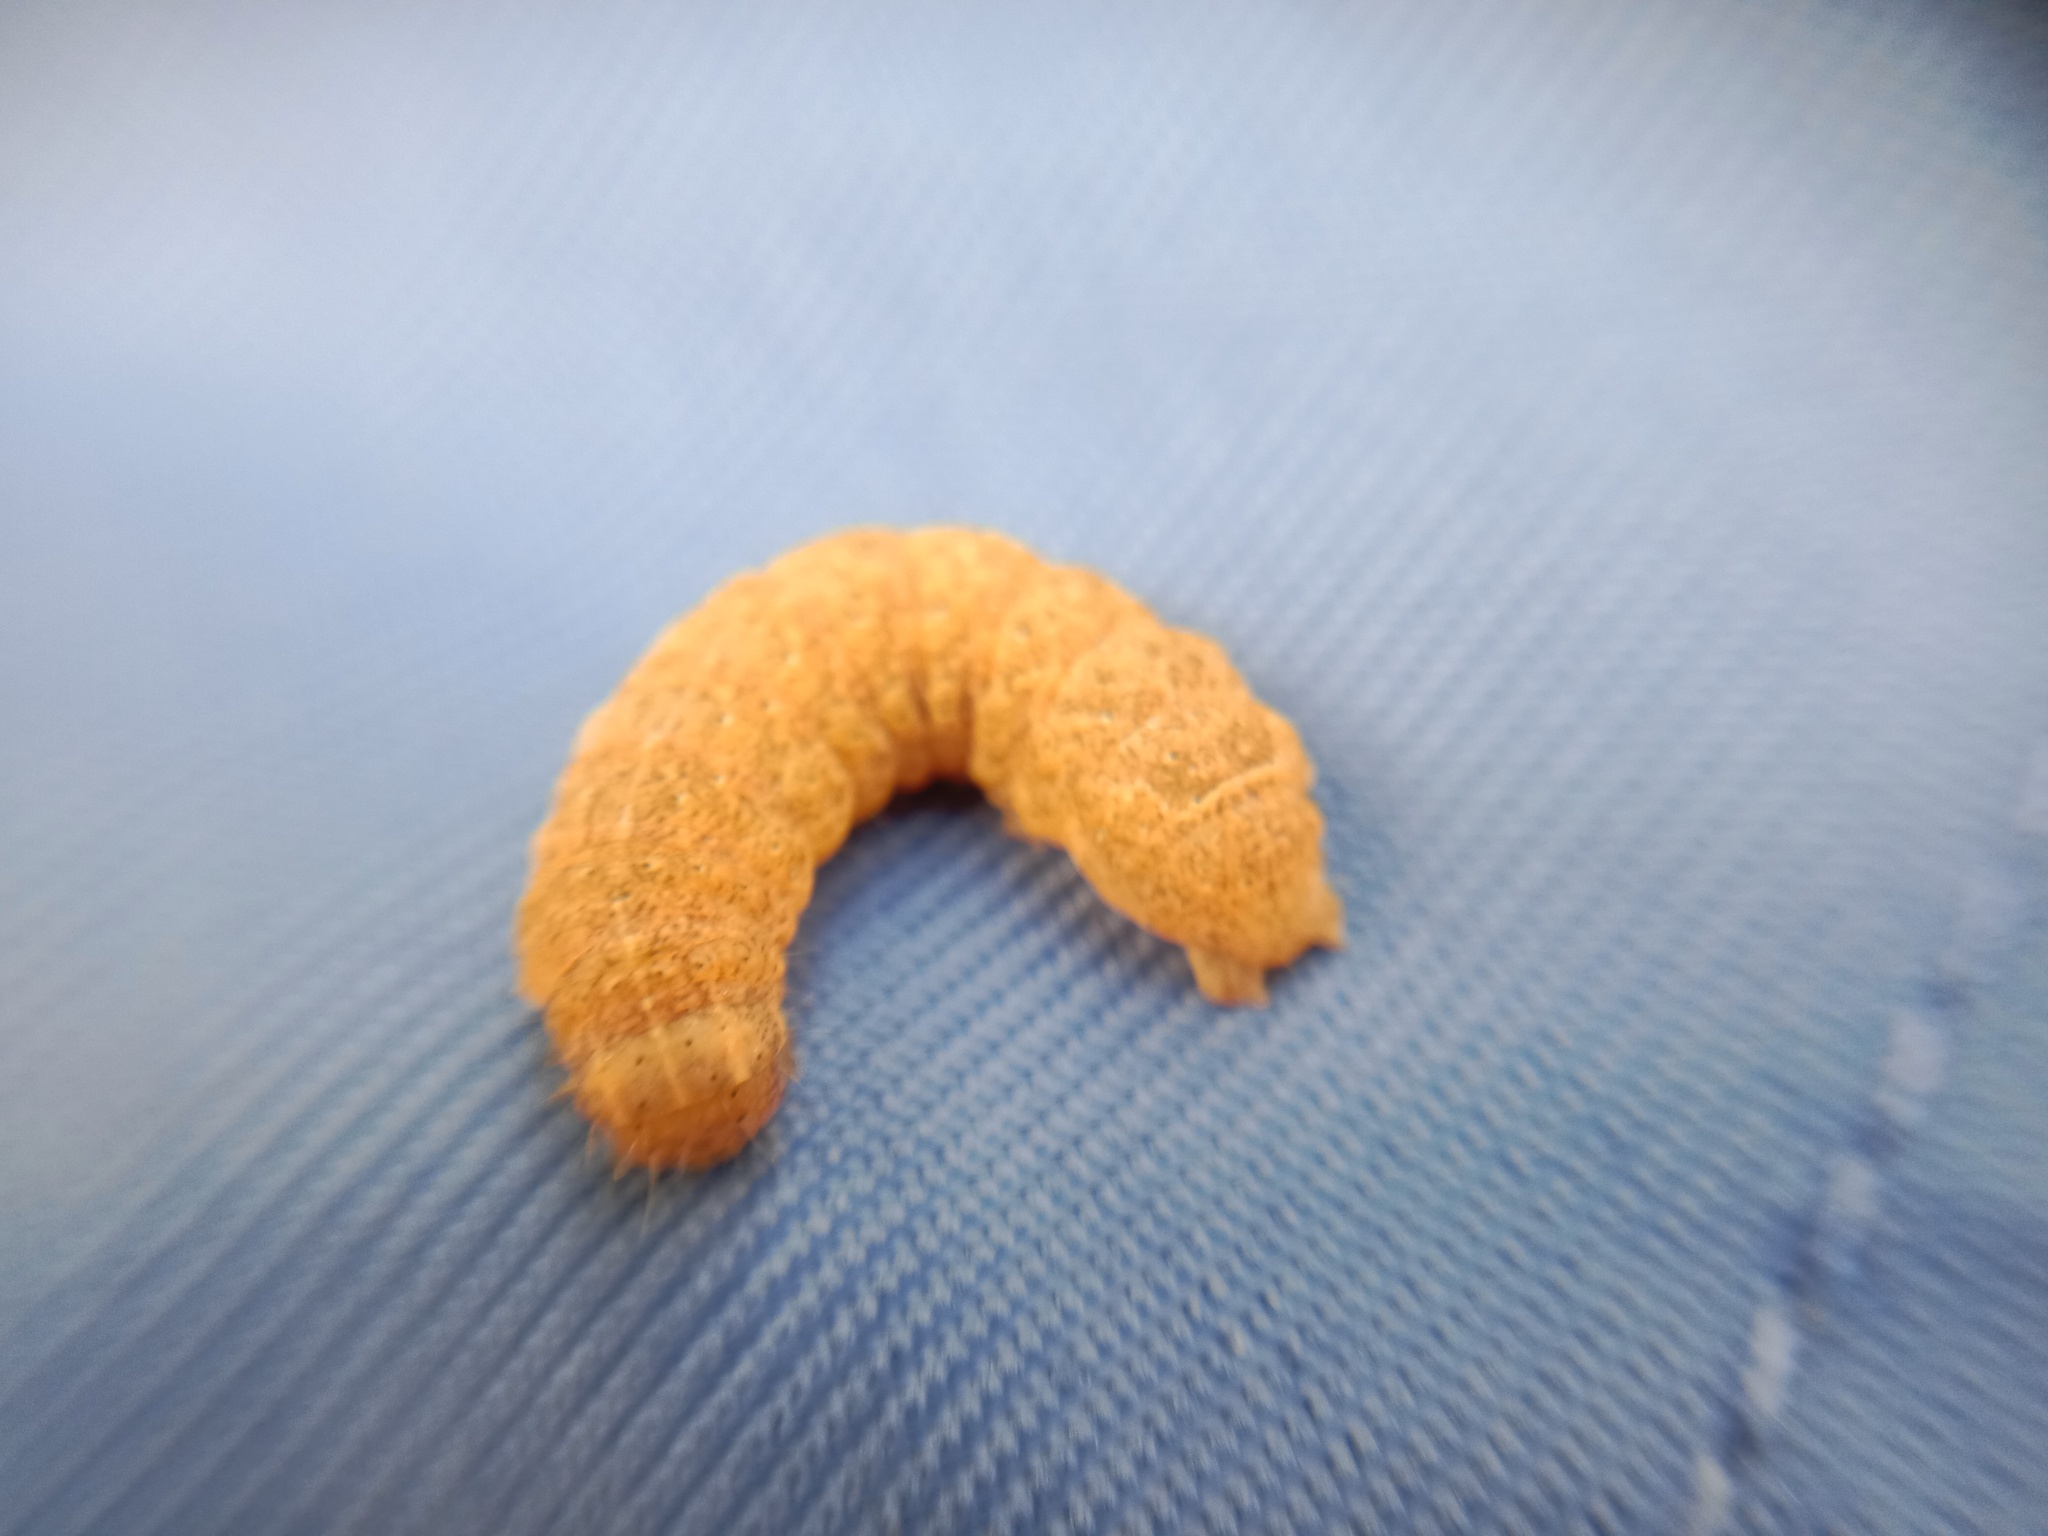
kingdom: Animalia
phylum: Arthropoda
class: Insecta
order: Lepidoptera
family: Noctuidae
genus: Noctua
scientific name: Noctua fimbriata
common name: Broad-bordered yellow underwing
